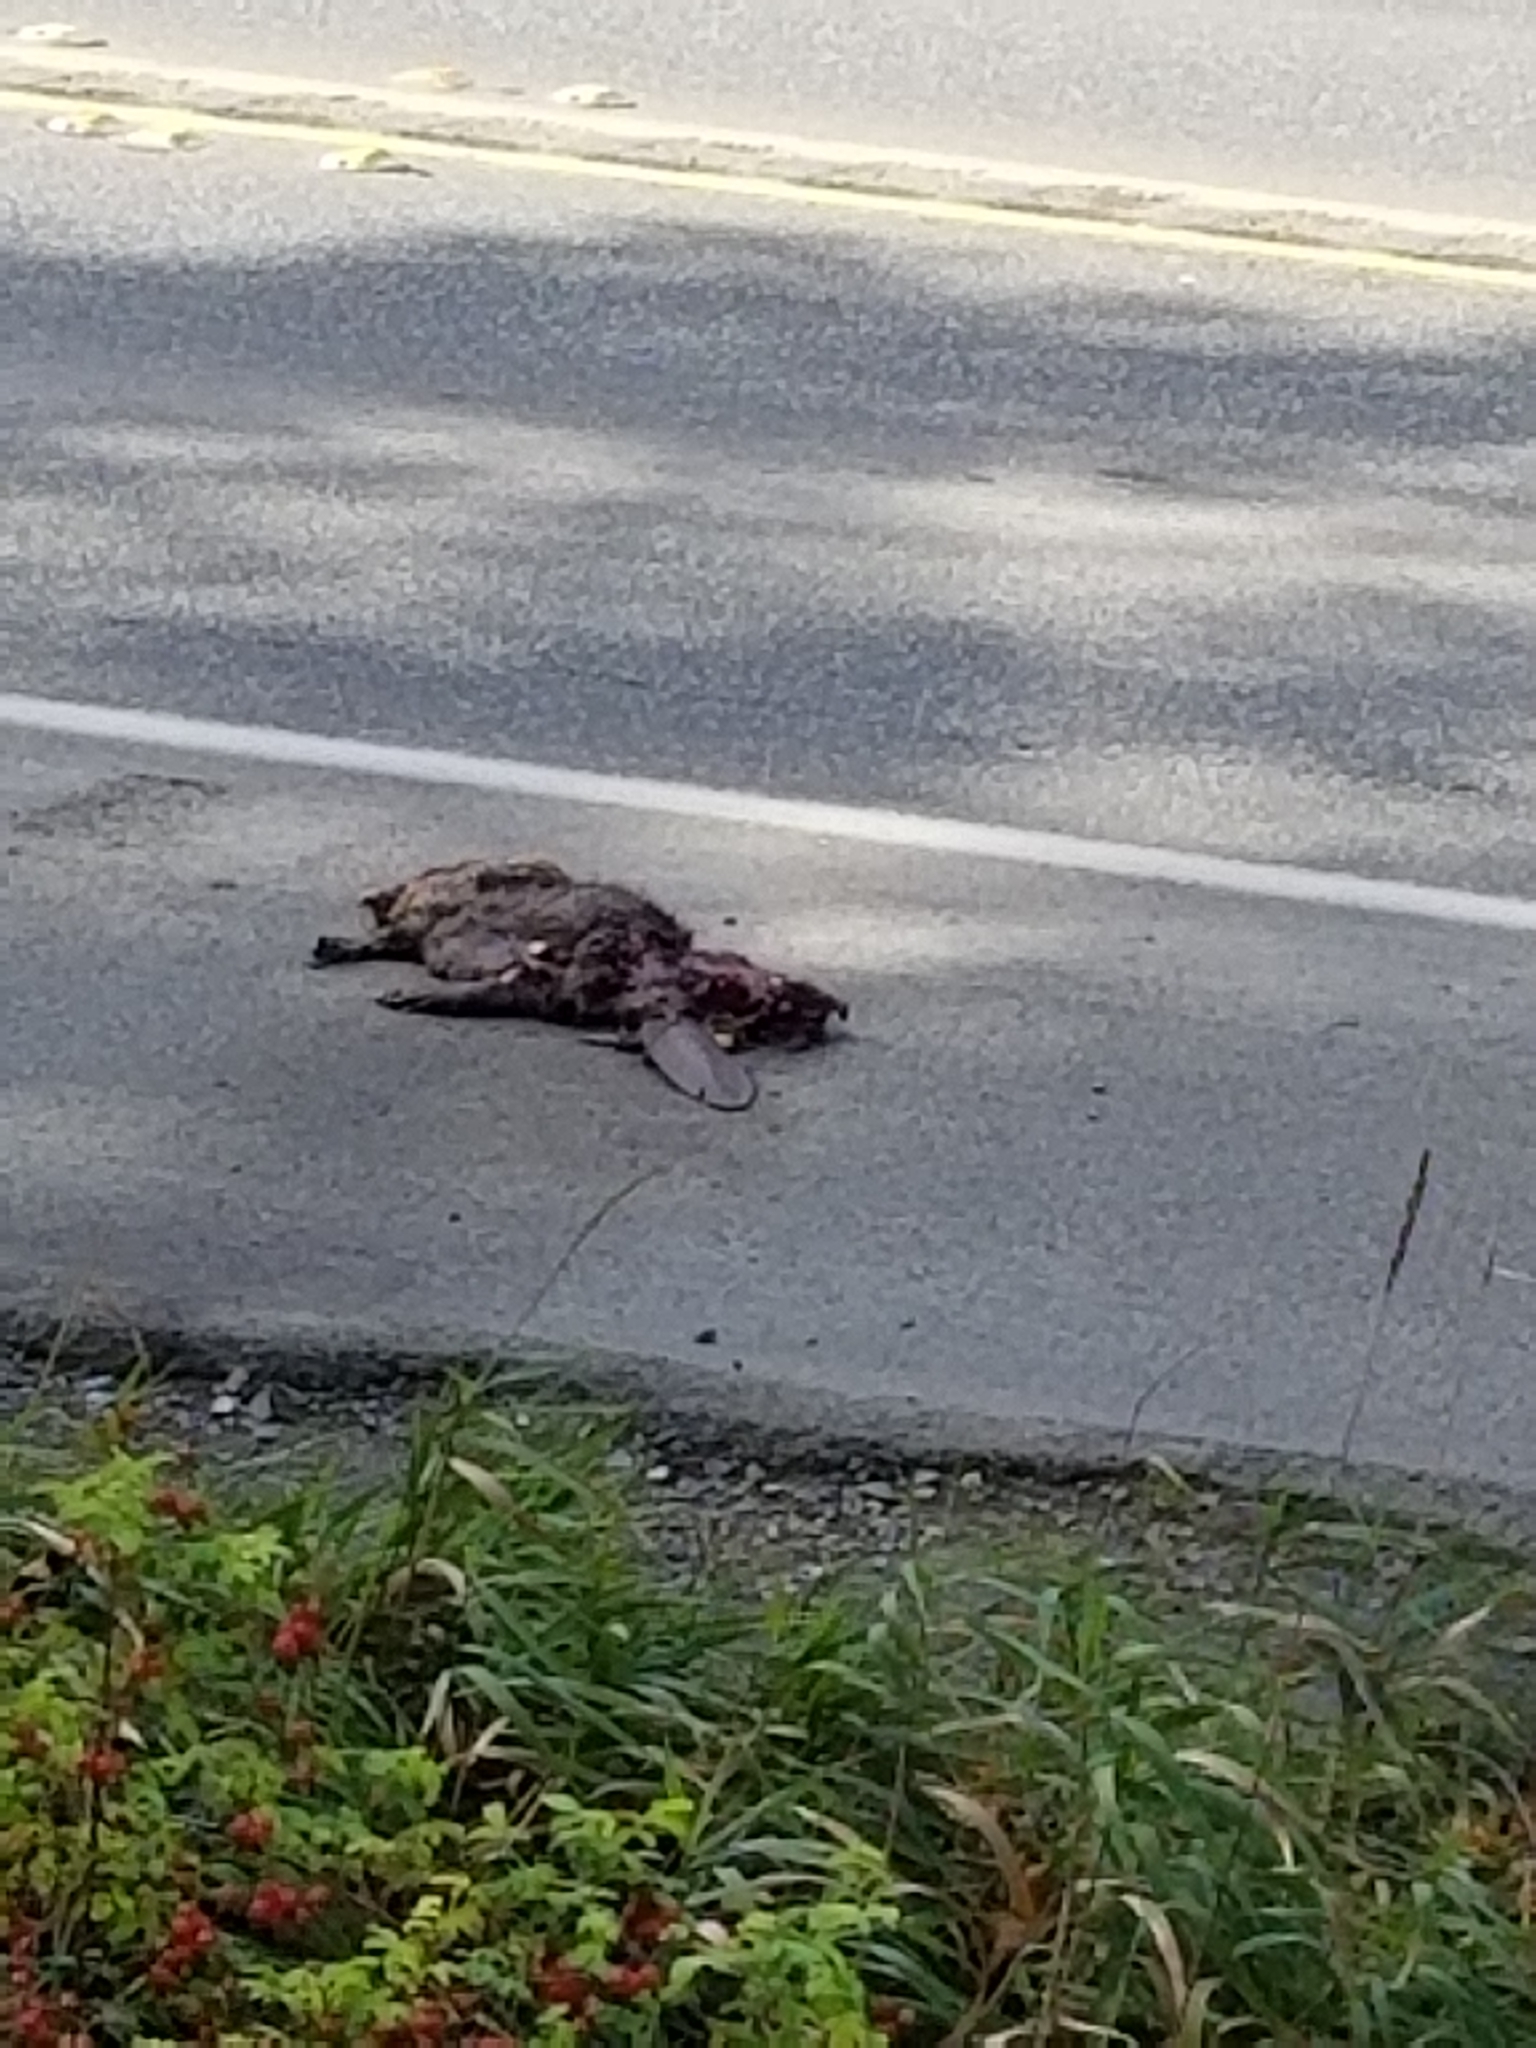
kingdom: Animalia
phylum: Chordata
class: Mammalia
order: Rodentia
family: Castoridae
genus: Castor
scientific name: Castor canadensis
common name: American beaver
